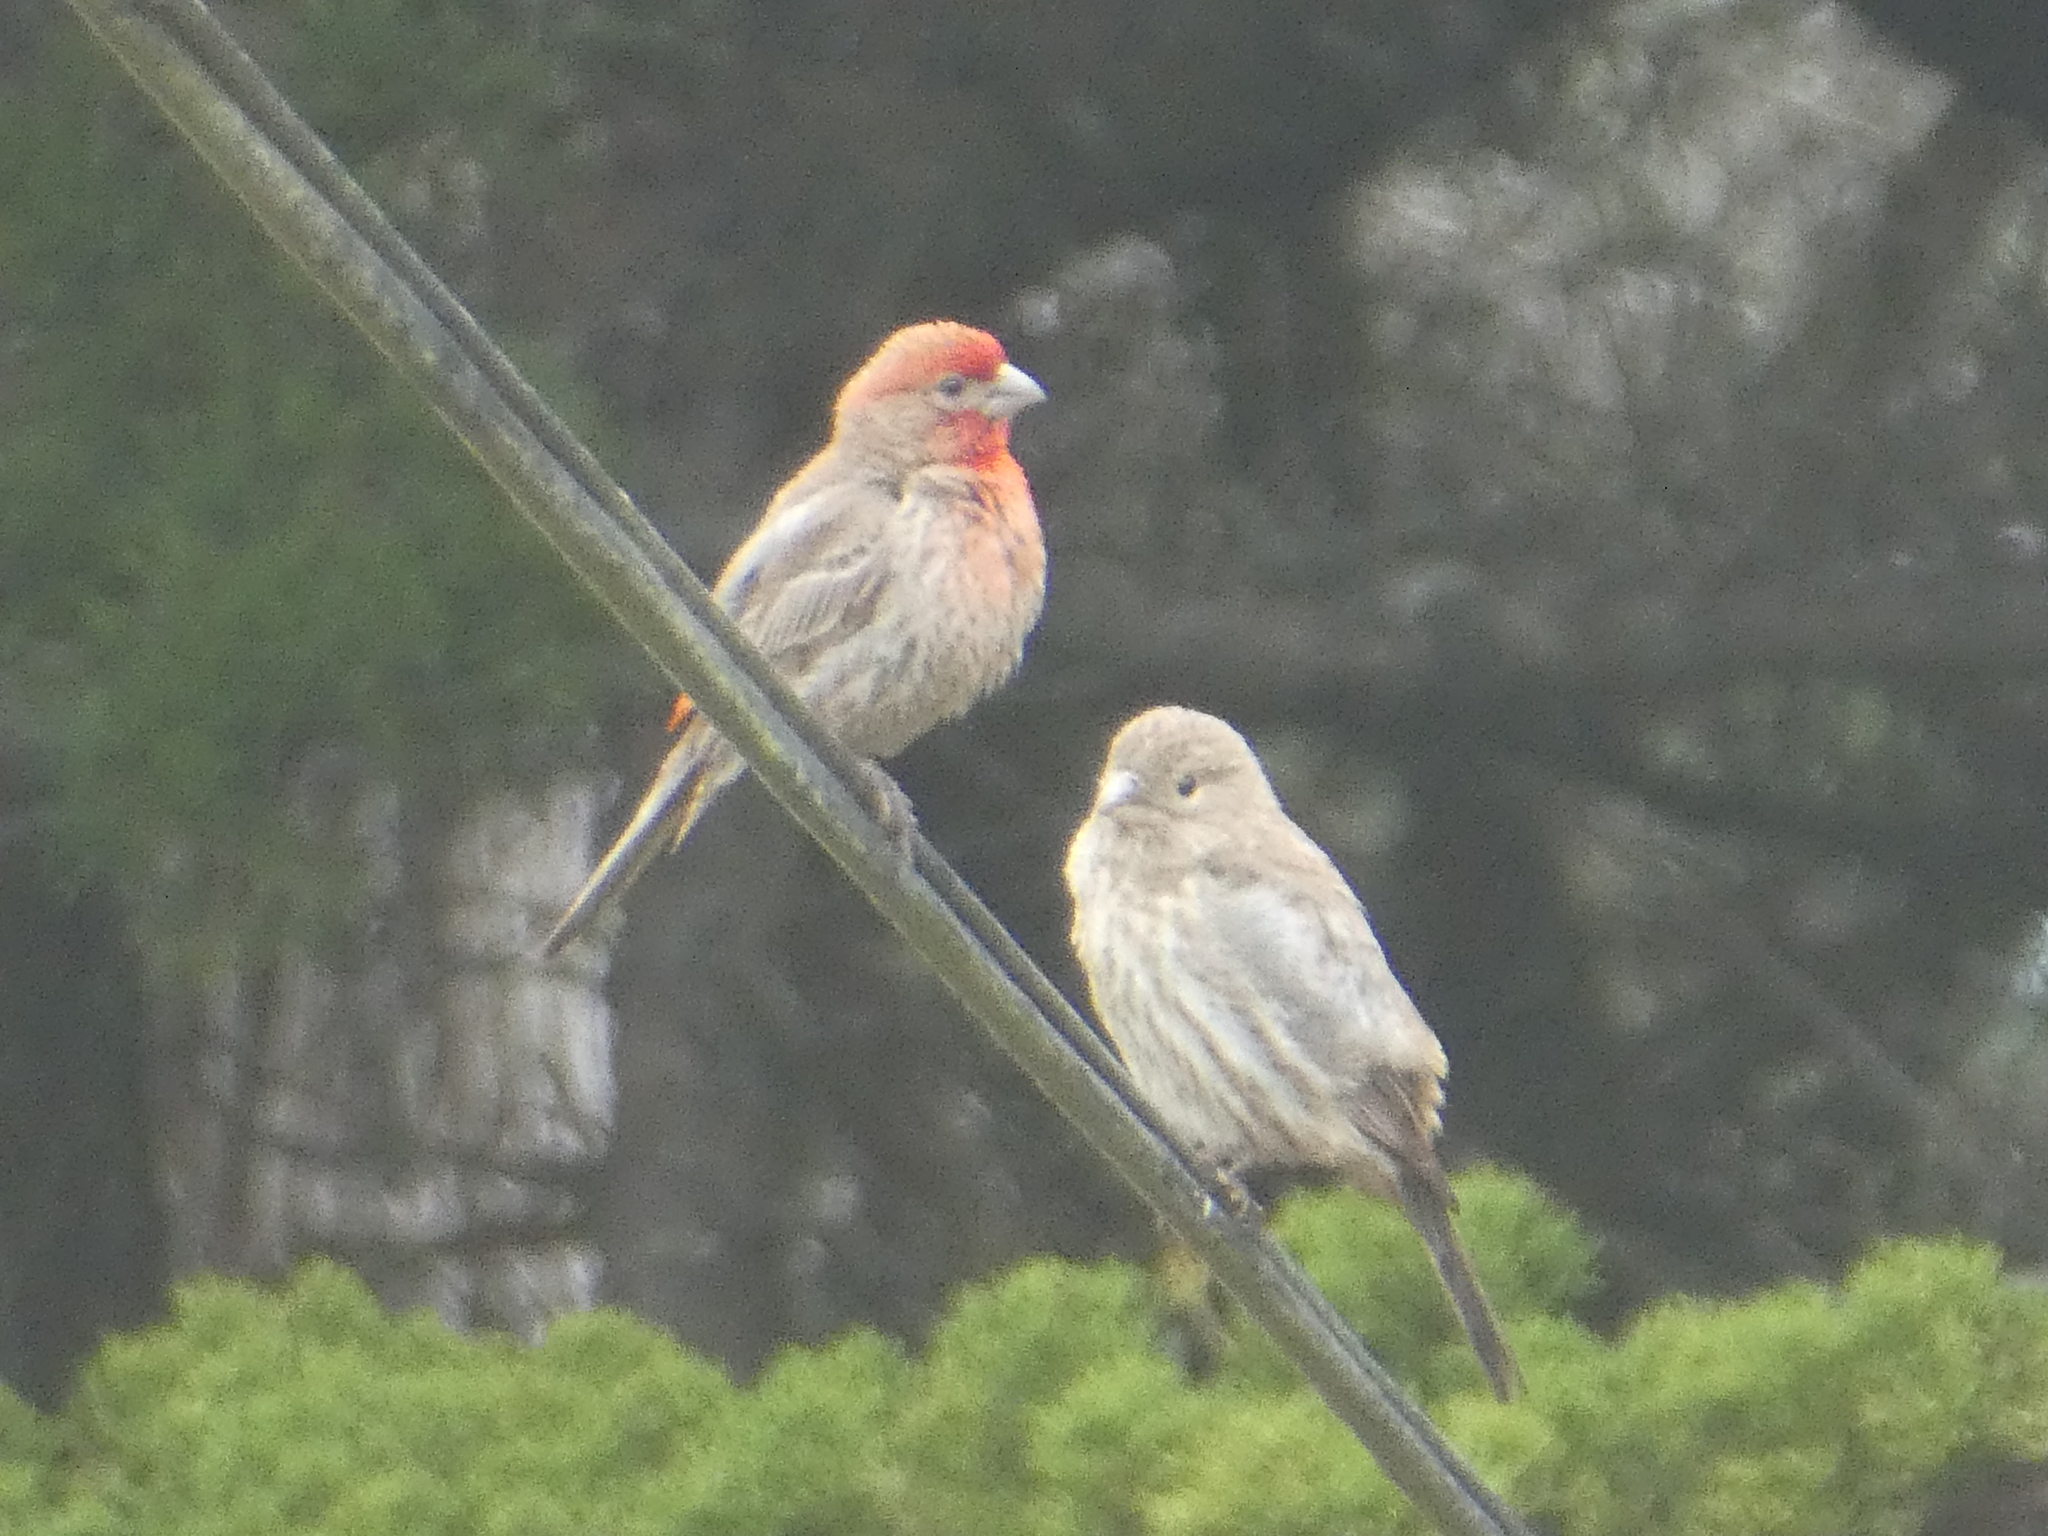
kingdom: Animalia
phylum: Chordata
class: Aves
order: Passeriformes
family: Fringillidae
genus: Haemorhous
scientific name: Haemorhous mexicanus
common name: House finch
